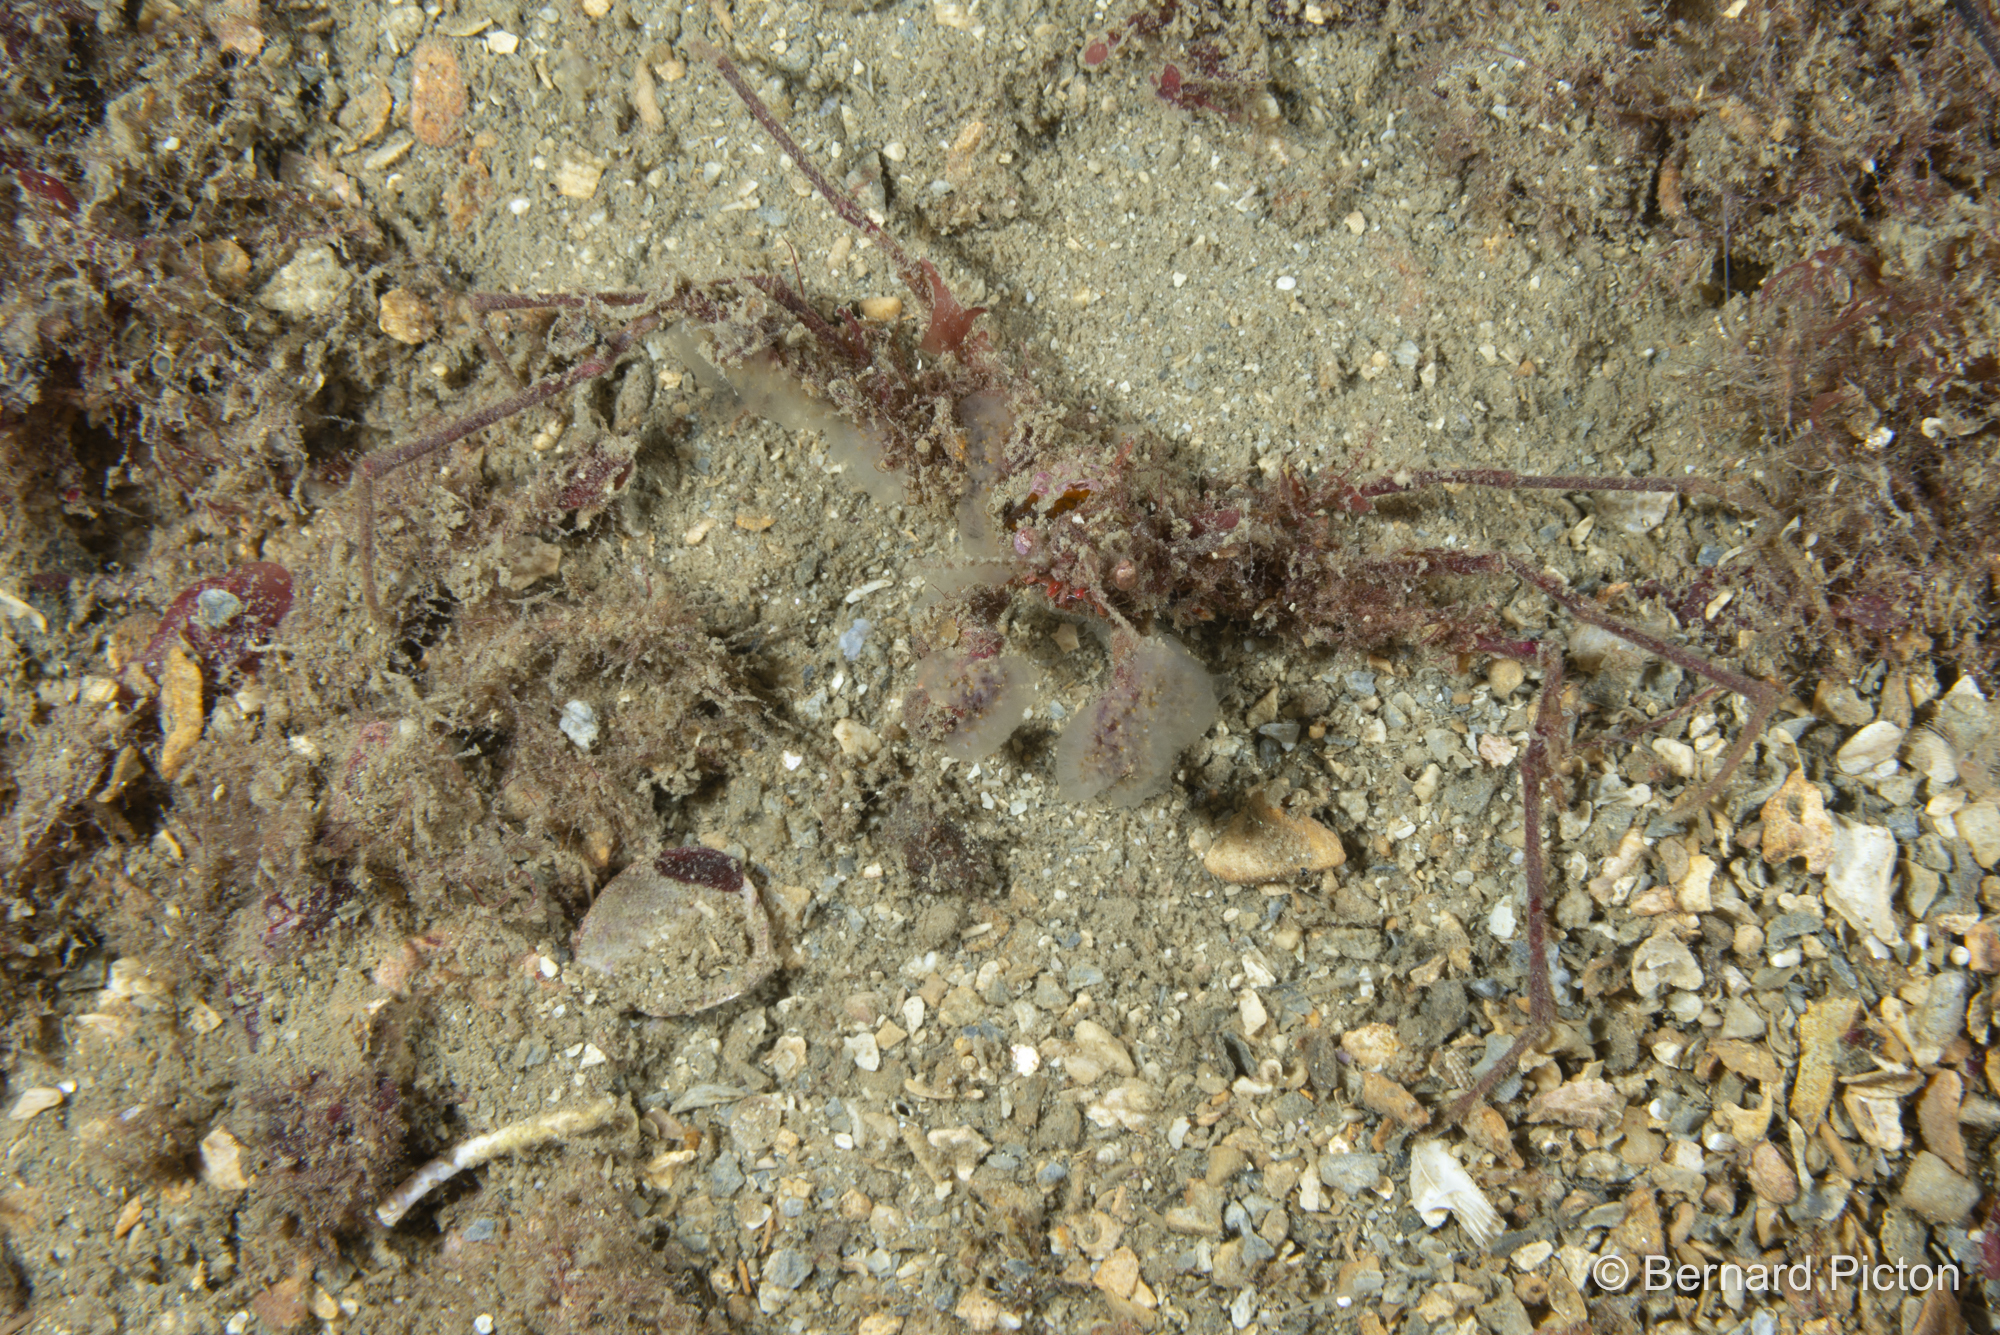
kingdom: Animalia
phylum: Arthropoda
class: Malacostraca
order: Decapoda
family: Inachidae
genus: Macropodia
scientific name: Macropodia rostrata
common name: Long-legged spider crab
